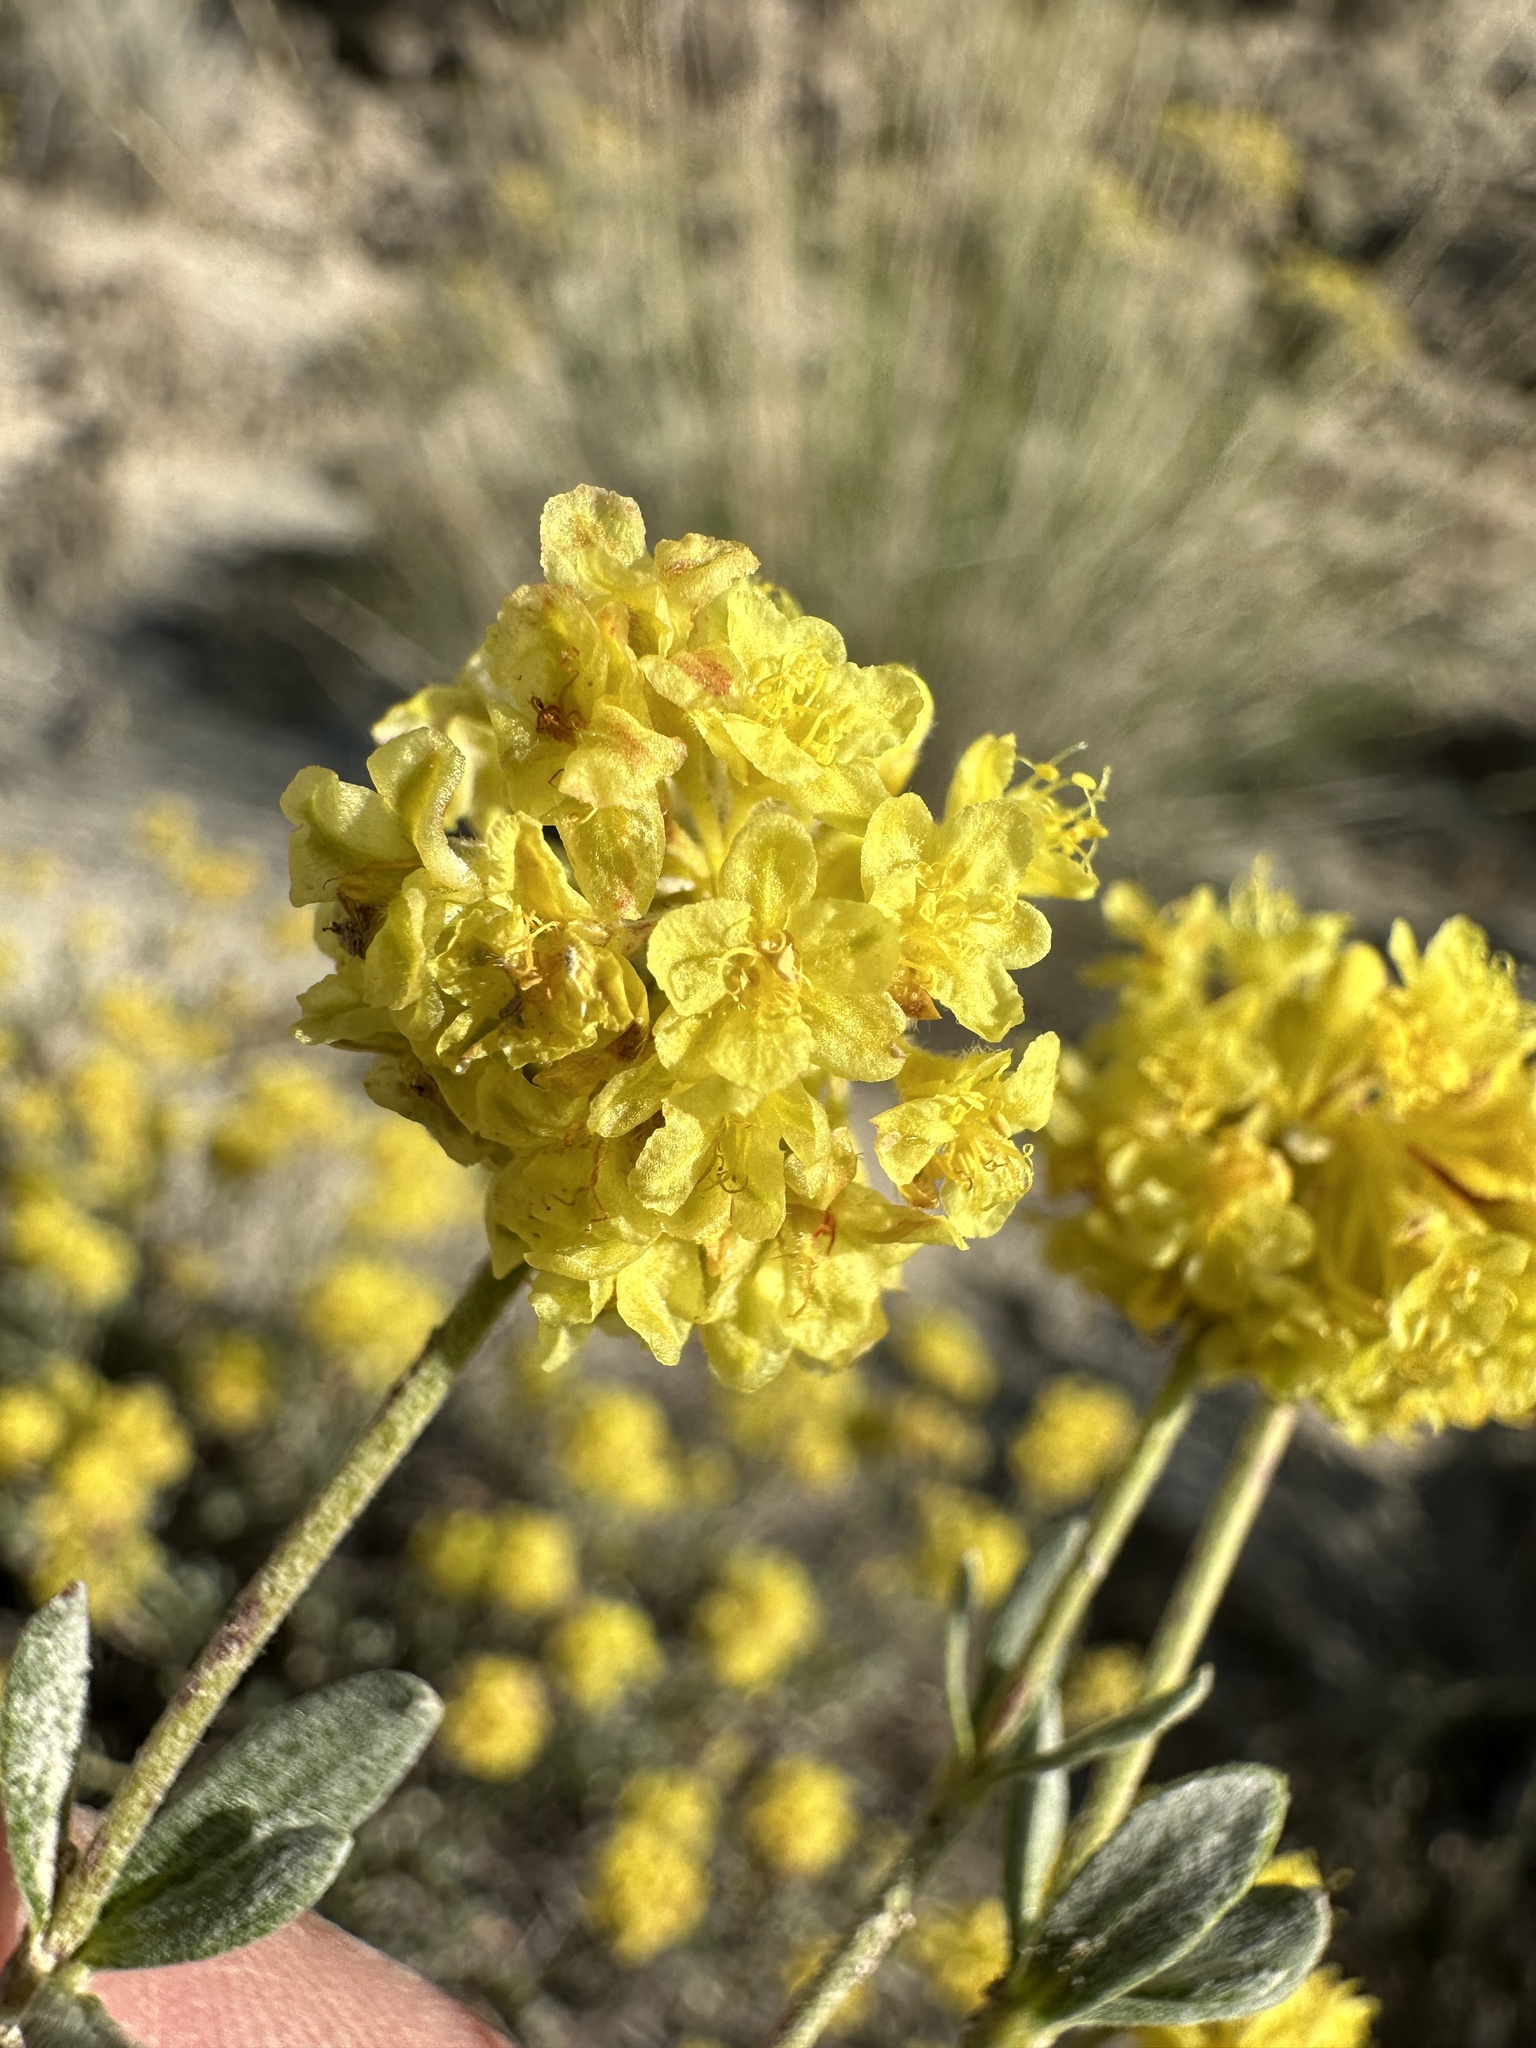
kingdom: Plantae
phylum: Tracheophyta
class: Magnoliopsida
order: Caryophyllales
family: Polygonaceae
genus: Eriogonum
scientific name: Eriogonum sphaerocephalum
